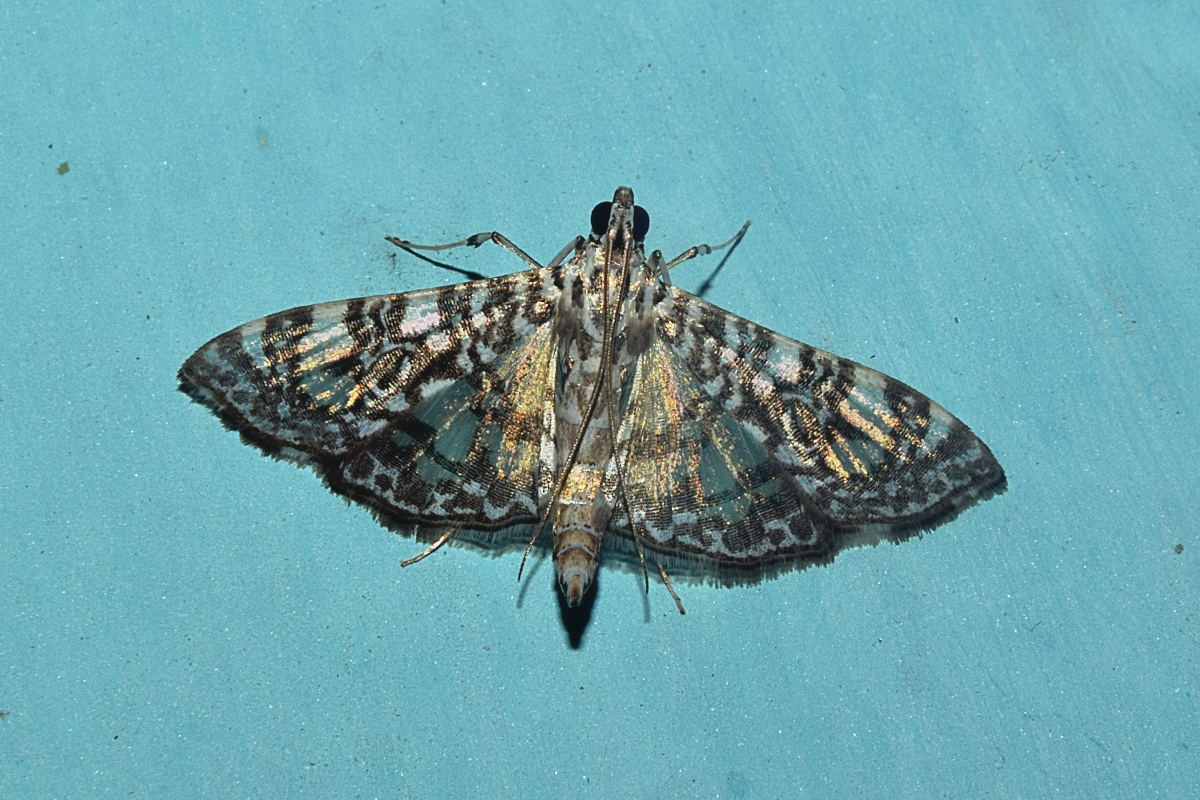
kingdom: Animalia
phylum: Arthropoda
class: Insecta
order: Lepidoptera
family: Crambidae
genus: Glyphodes
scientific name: Glyphodes onychinalis
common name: Swan plant moth
